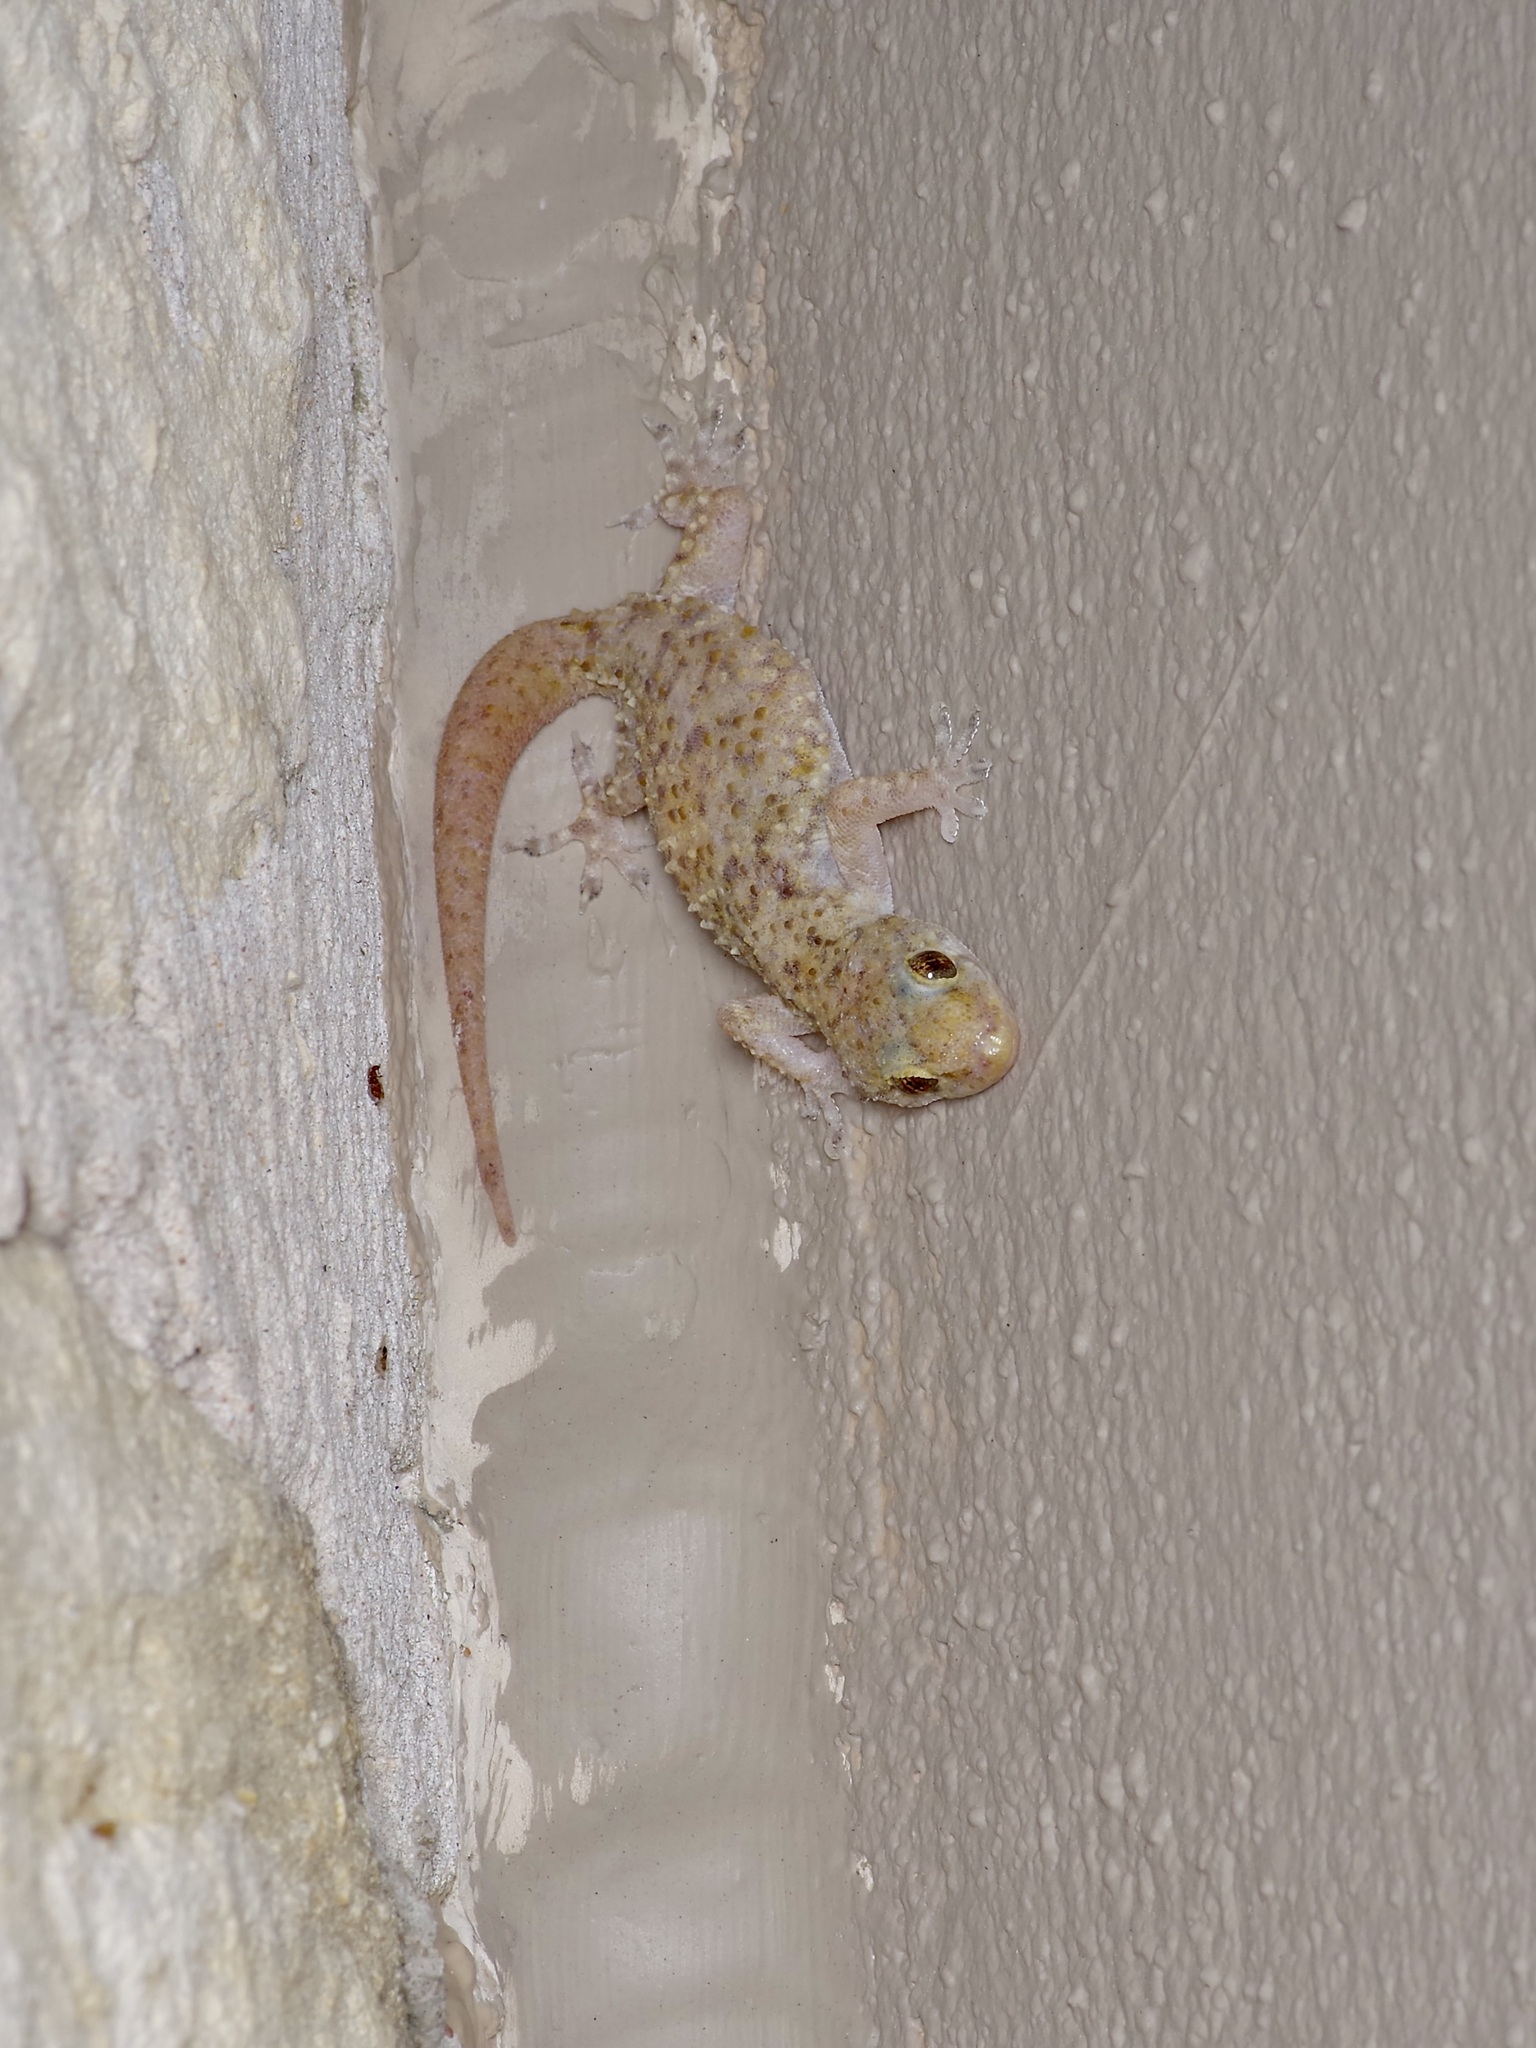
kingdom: Animalia
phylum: Chordata
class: Squamata
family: Gekkonidae
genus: Hemidactylus
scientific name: Hemidactylus turcicus
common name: Turkish gecko
